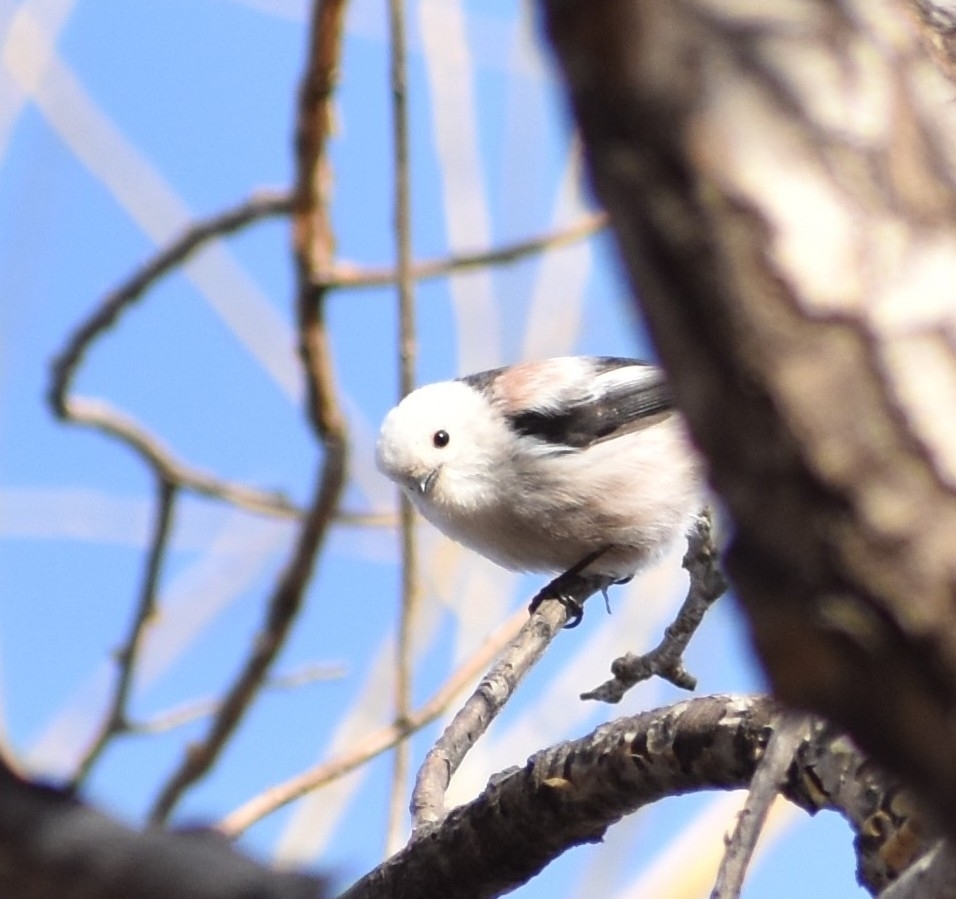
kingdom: Animalia
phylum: Chordata
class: Aves
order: Passeriformes
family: Aegithalidae
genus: Aegithalos
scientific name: Aegithalos caudatus
